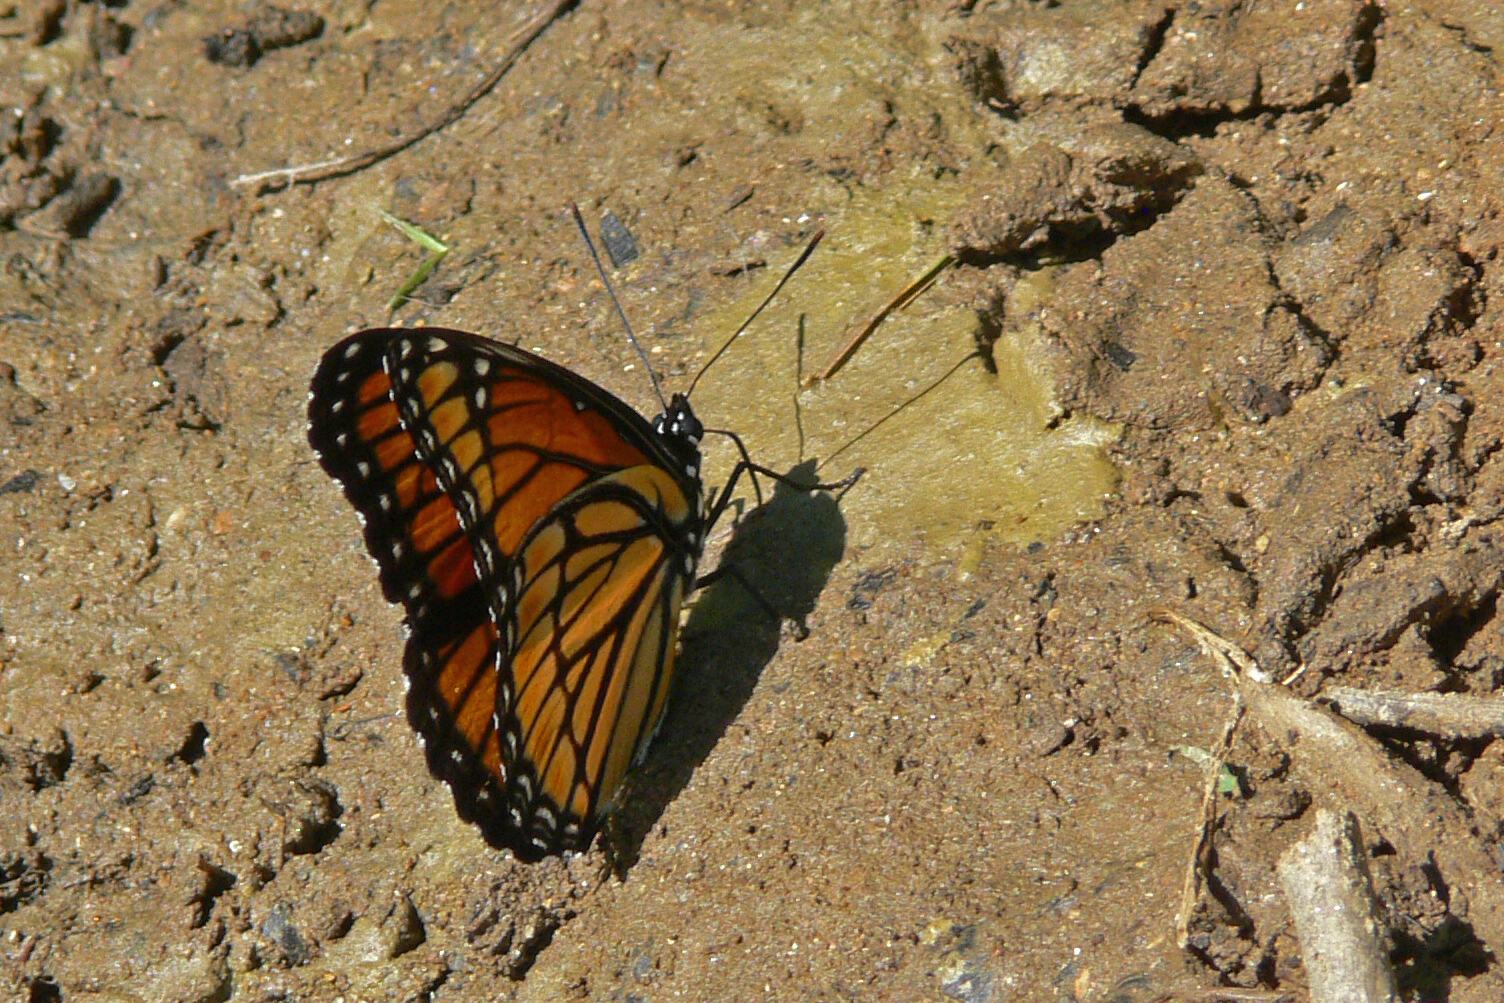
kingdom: Animalia
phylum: Arthropoda
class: Insecta
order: Lepidoptera
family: Nymphalidae
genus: Limenitis
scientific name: Limenitis archippus
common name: Viceroy
